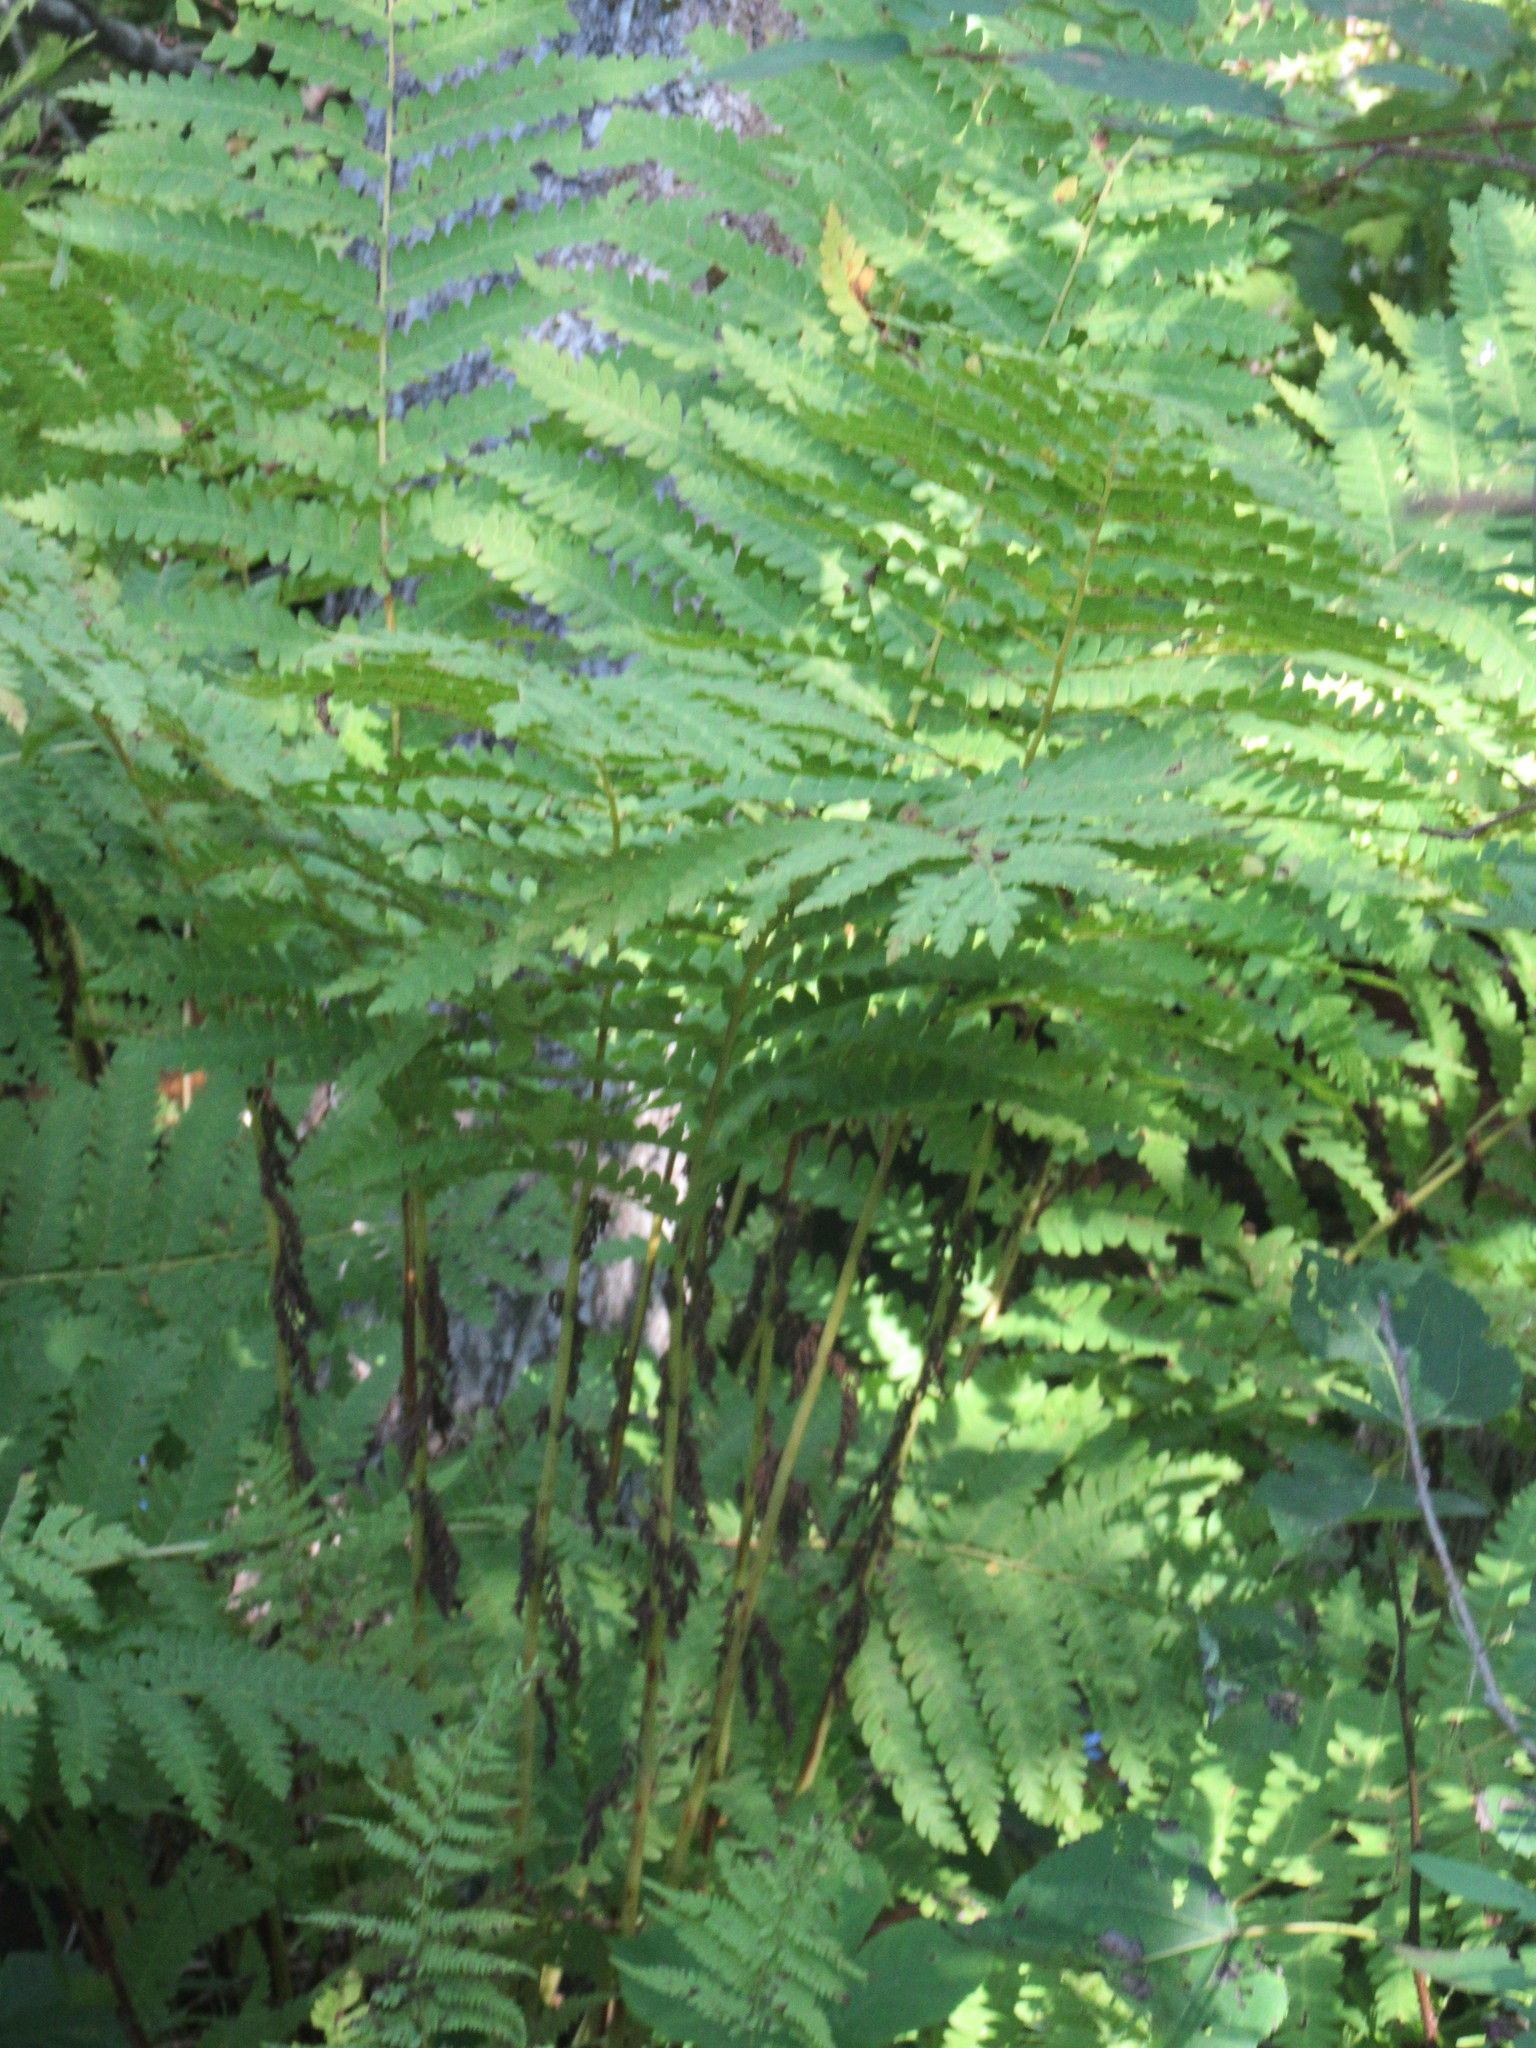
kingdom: Plantae
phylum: Tracheophyta
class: Polypodiopsida
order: Osmundales
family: Osmundaceae
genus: Claytosmunda
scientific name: Claytosmunda claytoniana
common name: Clayton's fern
